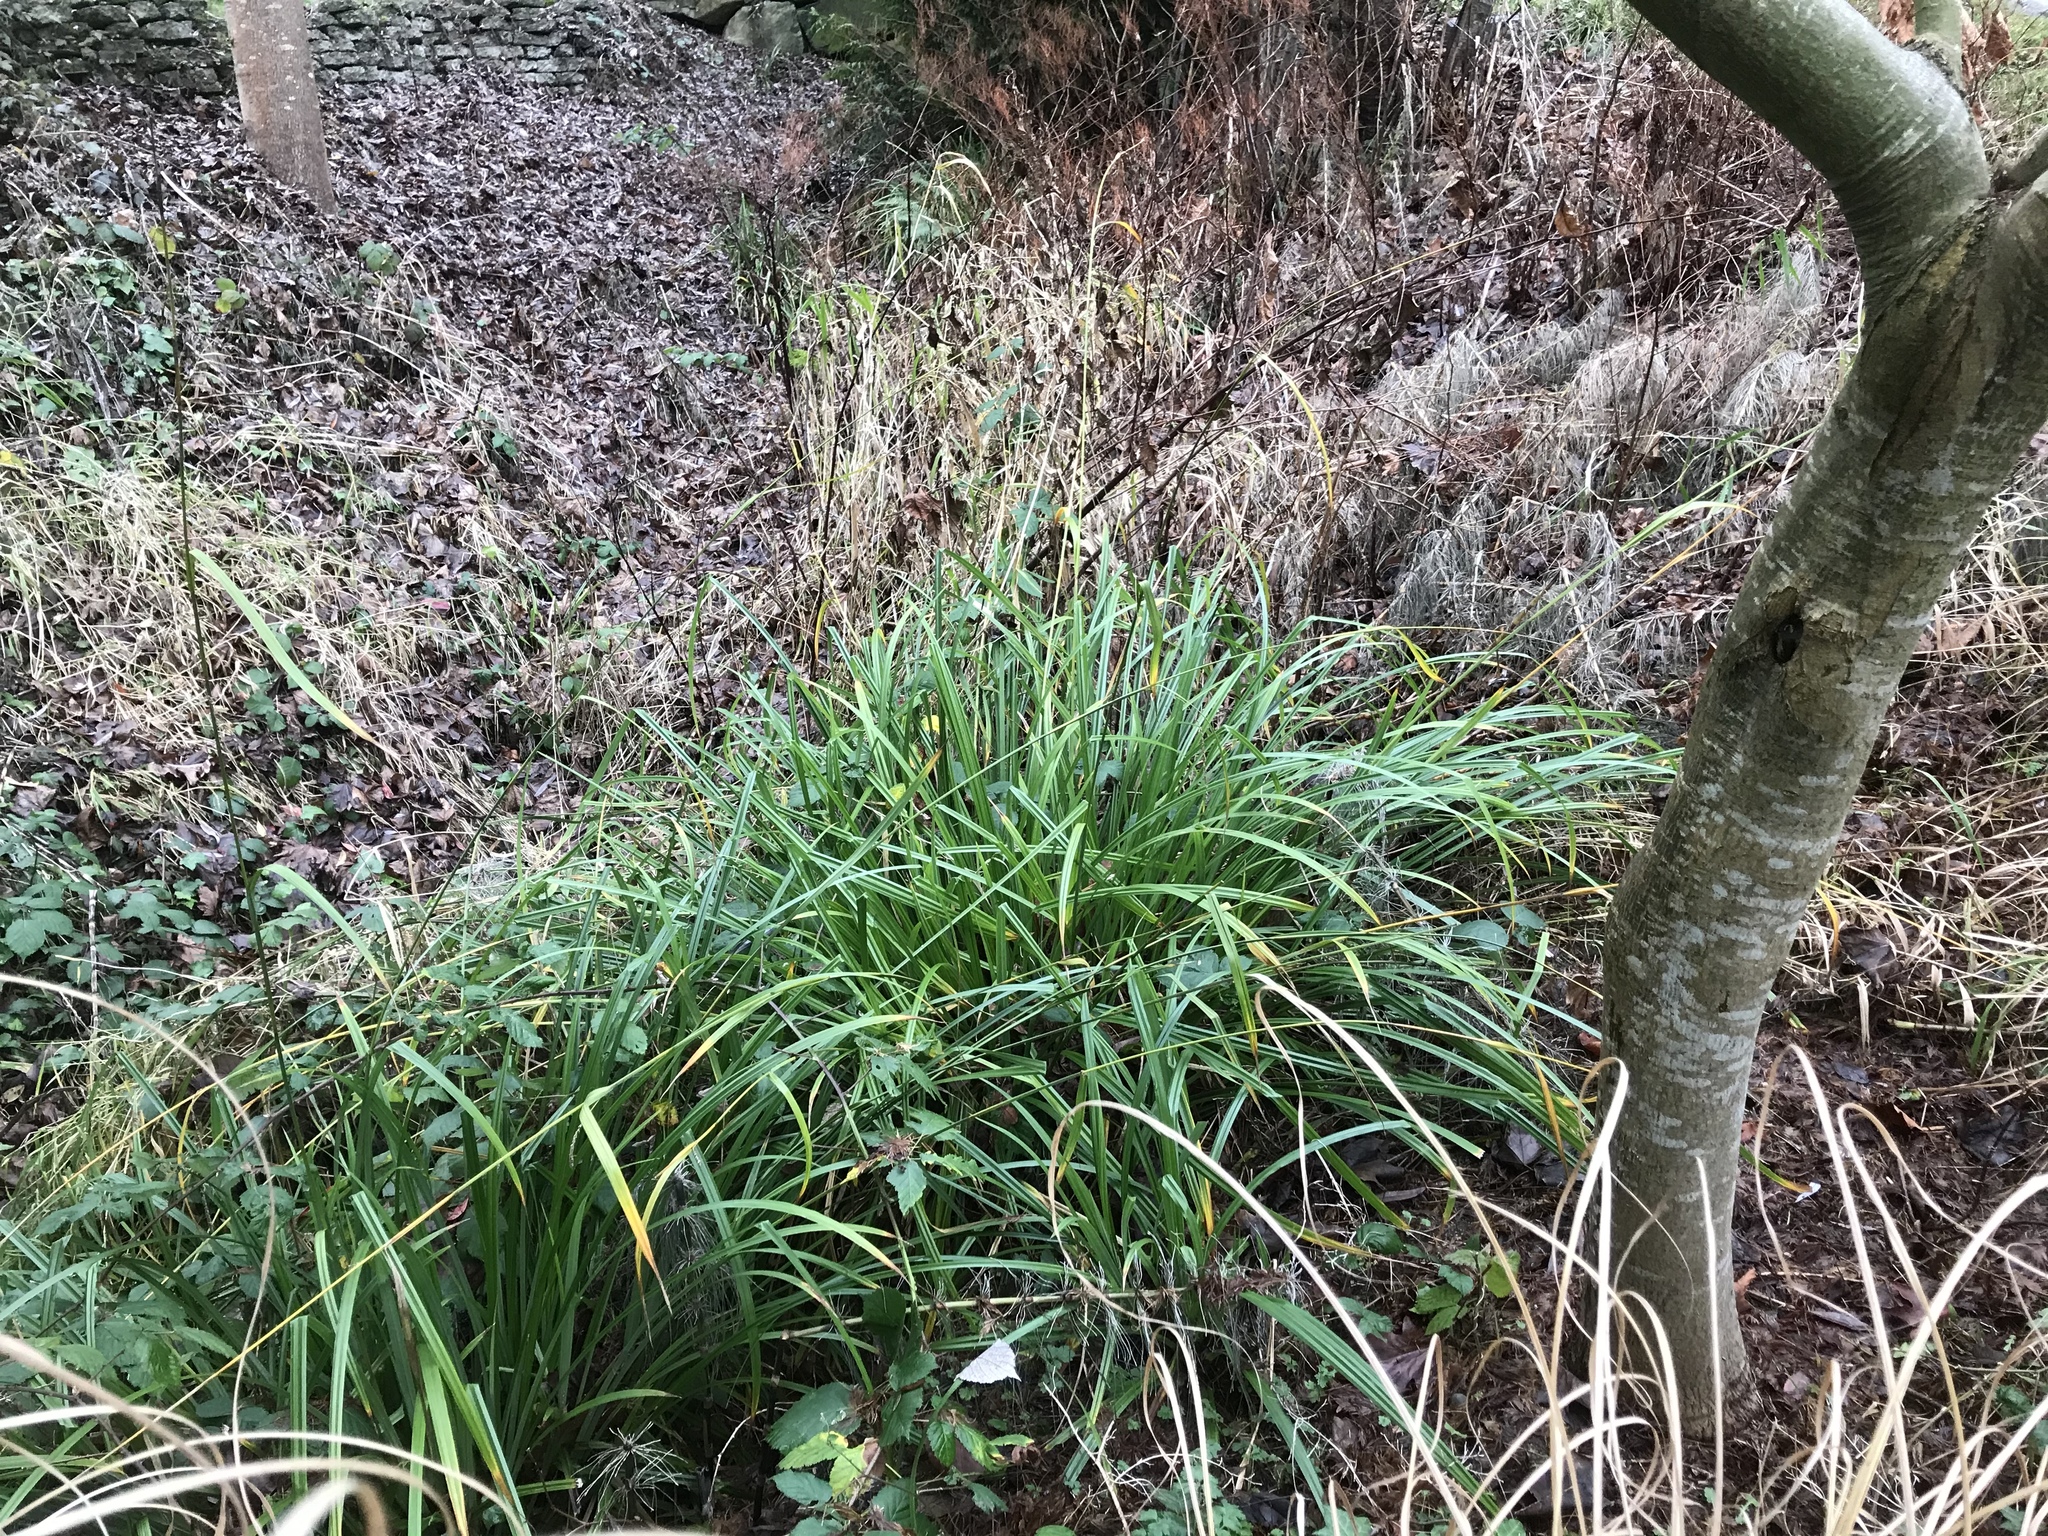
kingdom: Plantae
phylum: Tracheophyta
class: Liliopsida
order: Poales
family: Cyperaceae
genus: Carex
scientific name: Carex pendula
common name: Pendulous sedge
